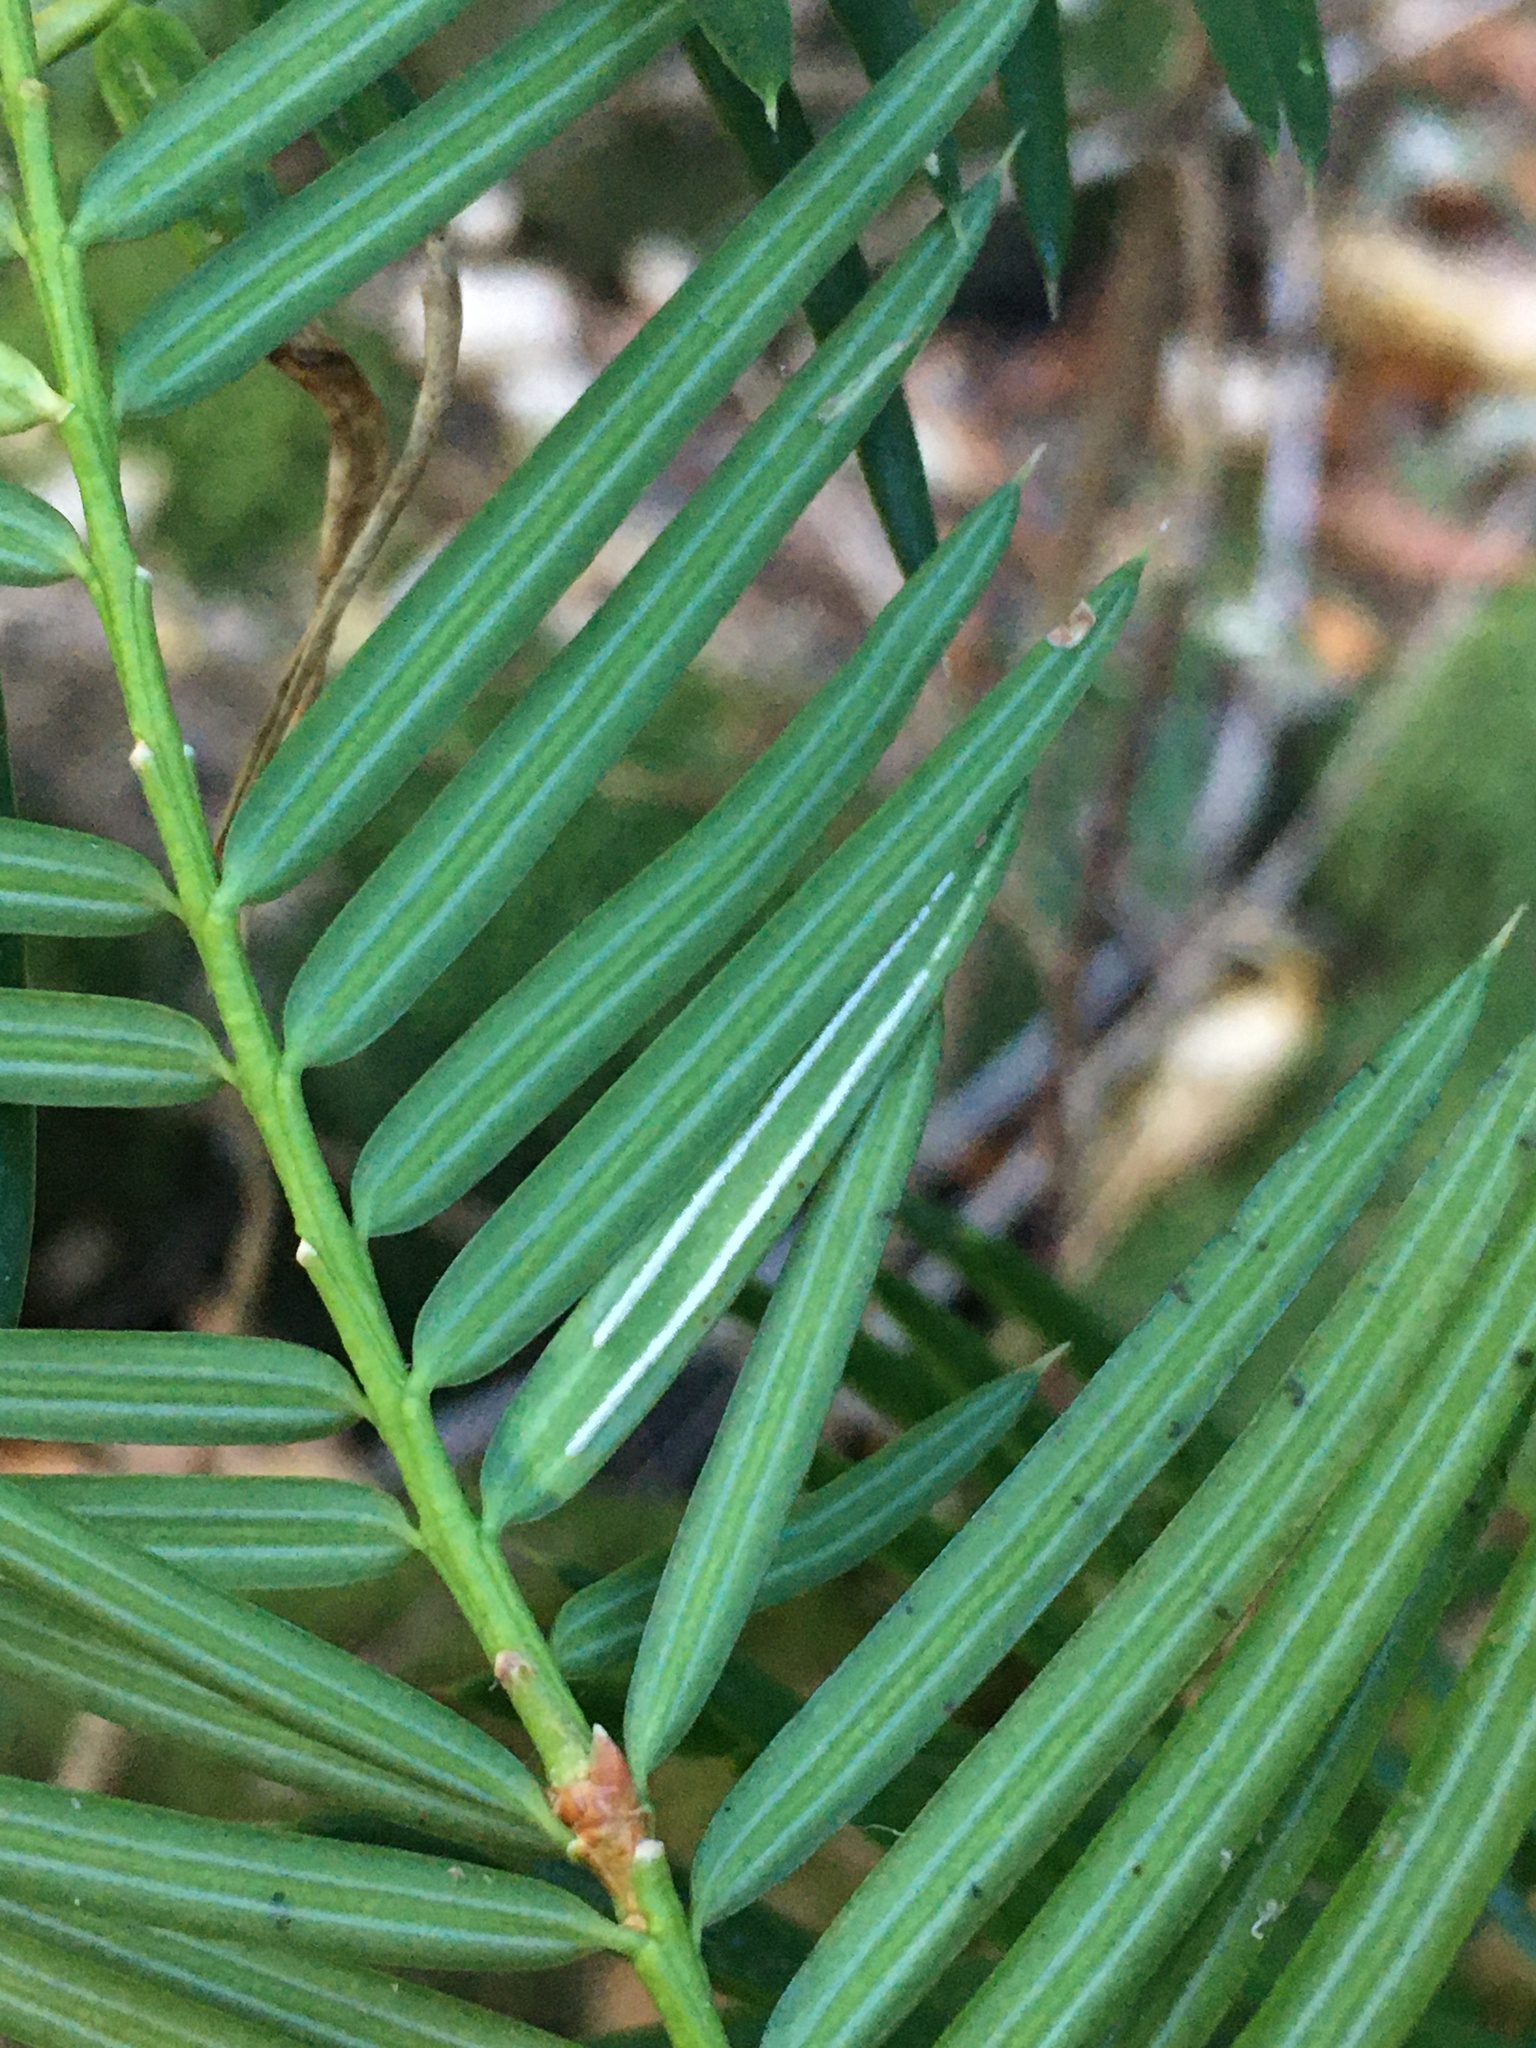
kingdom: Fungi
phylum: Basidiomycota
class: Pucciniomycetes
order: Pucciniales
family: Rogerpetersoniaceae
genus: Rogerpetersonia
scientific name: Rogerpetersonia torreyae
